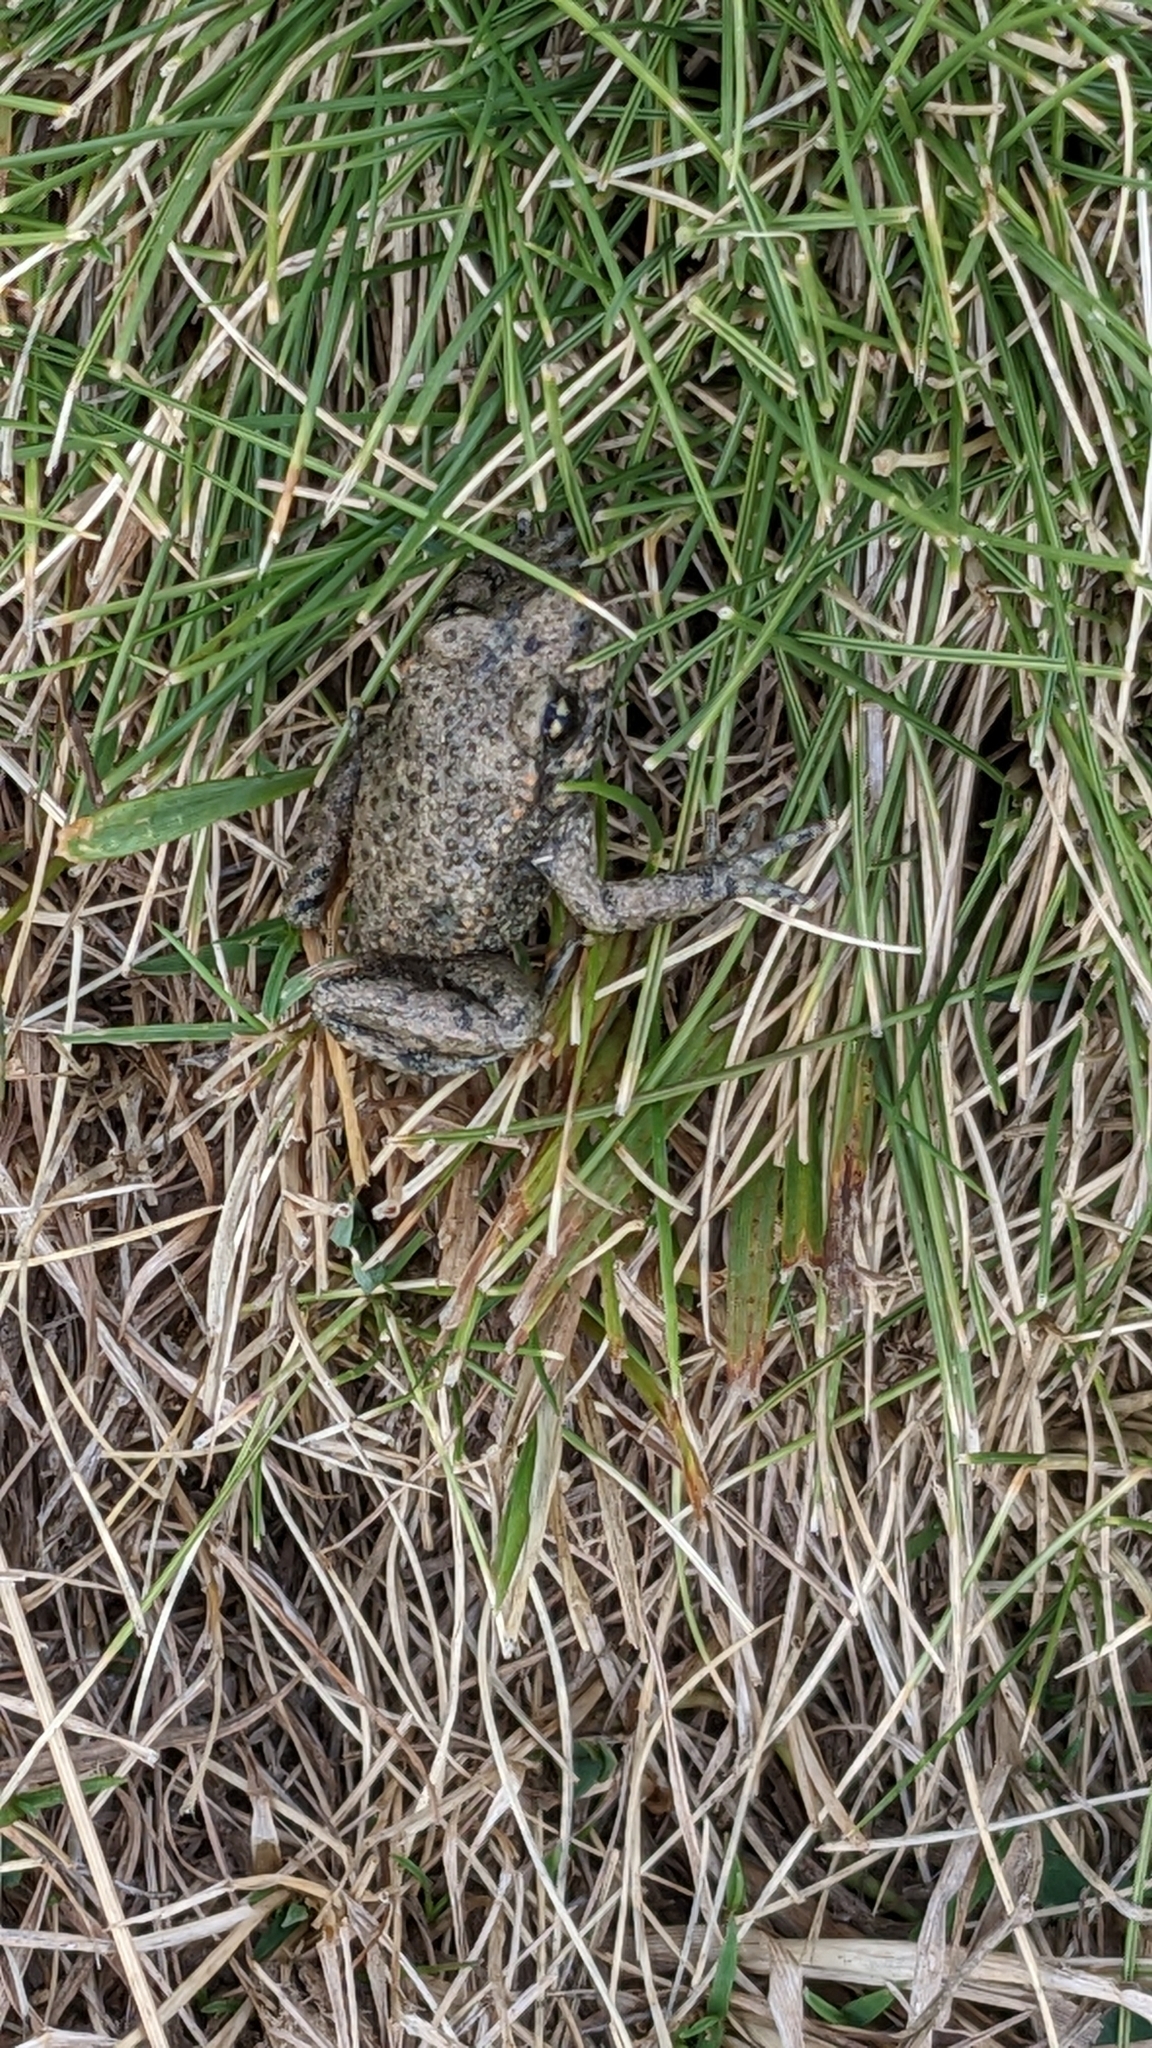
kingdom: Animalia
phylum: Chordata
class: Amphibia
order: Anura
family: Alytidae
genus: Alytes
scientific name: Alytes obstetricans
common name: Midwife toad
